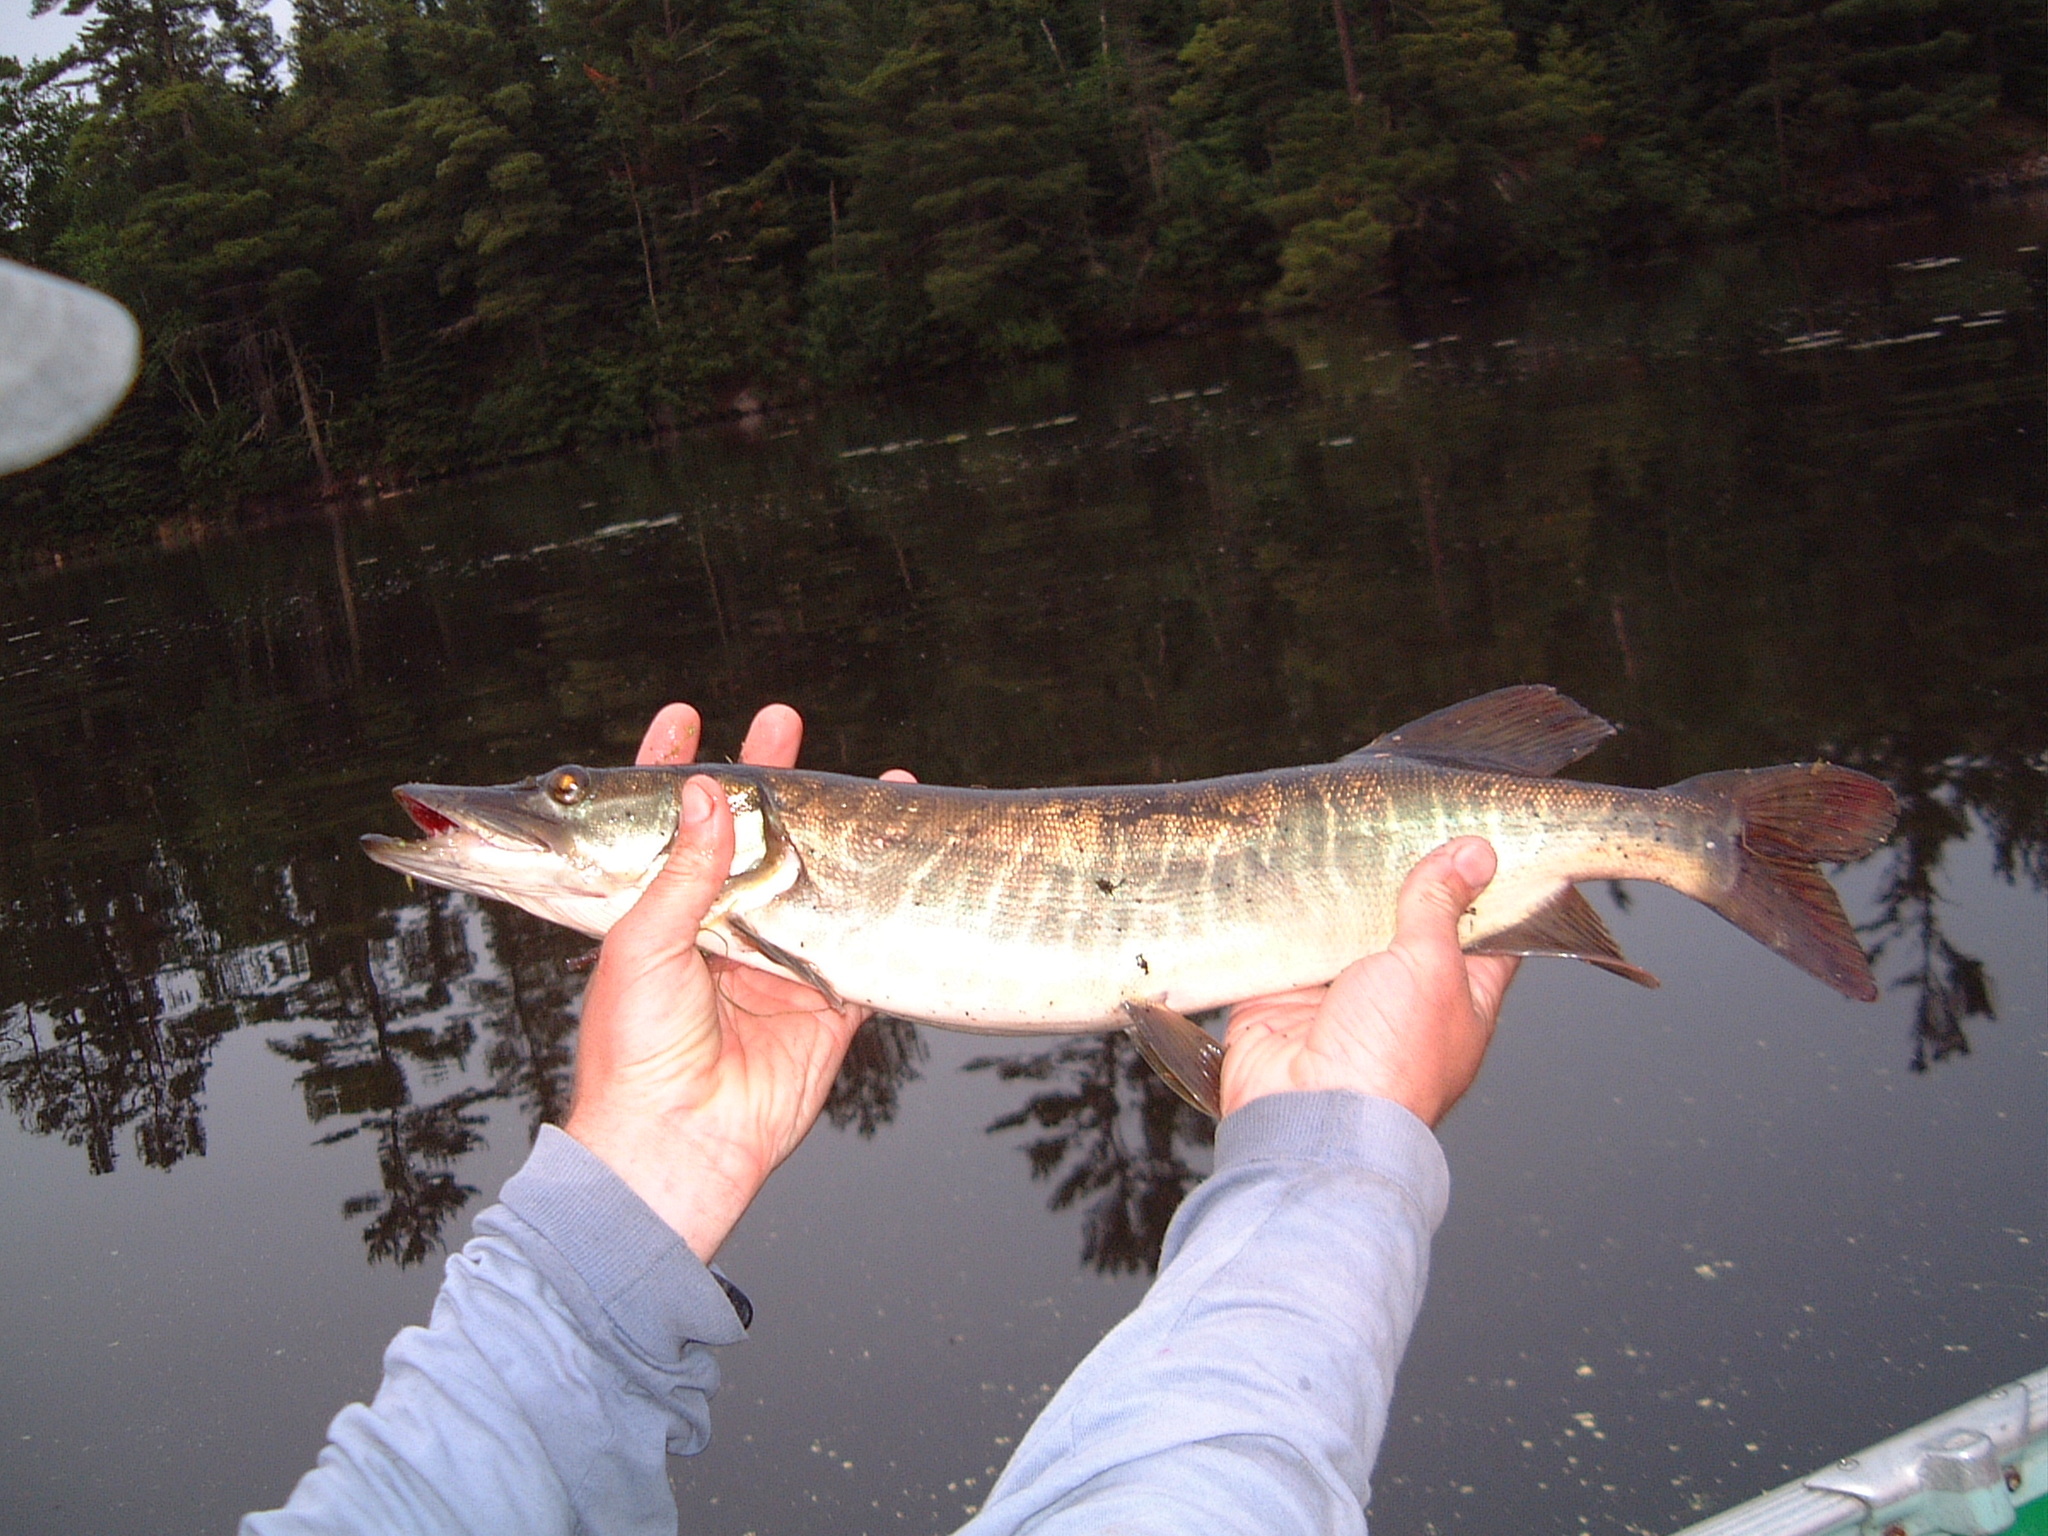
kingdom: Animalia
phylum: Chordata
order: Esociformes
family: Esocidae
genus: Esox
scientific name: Esox masquinongy
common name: Muskellunge
